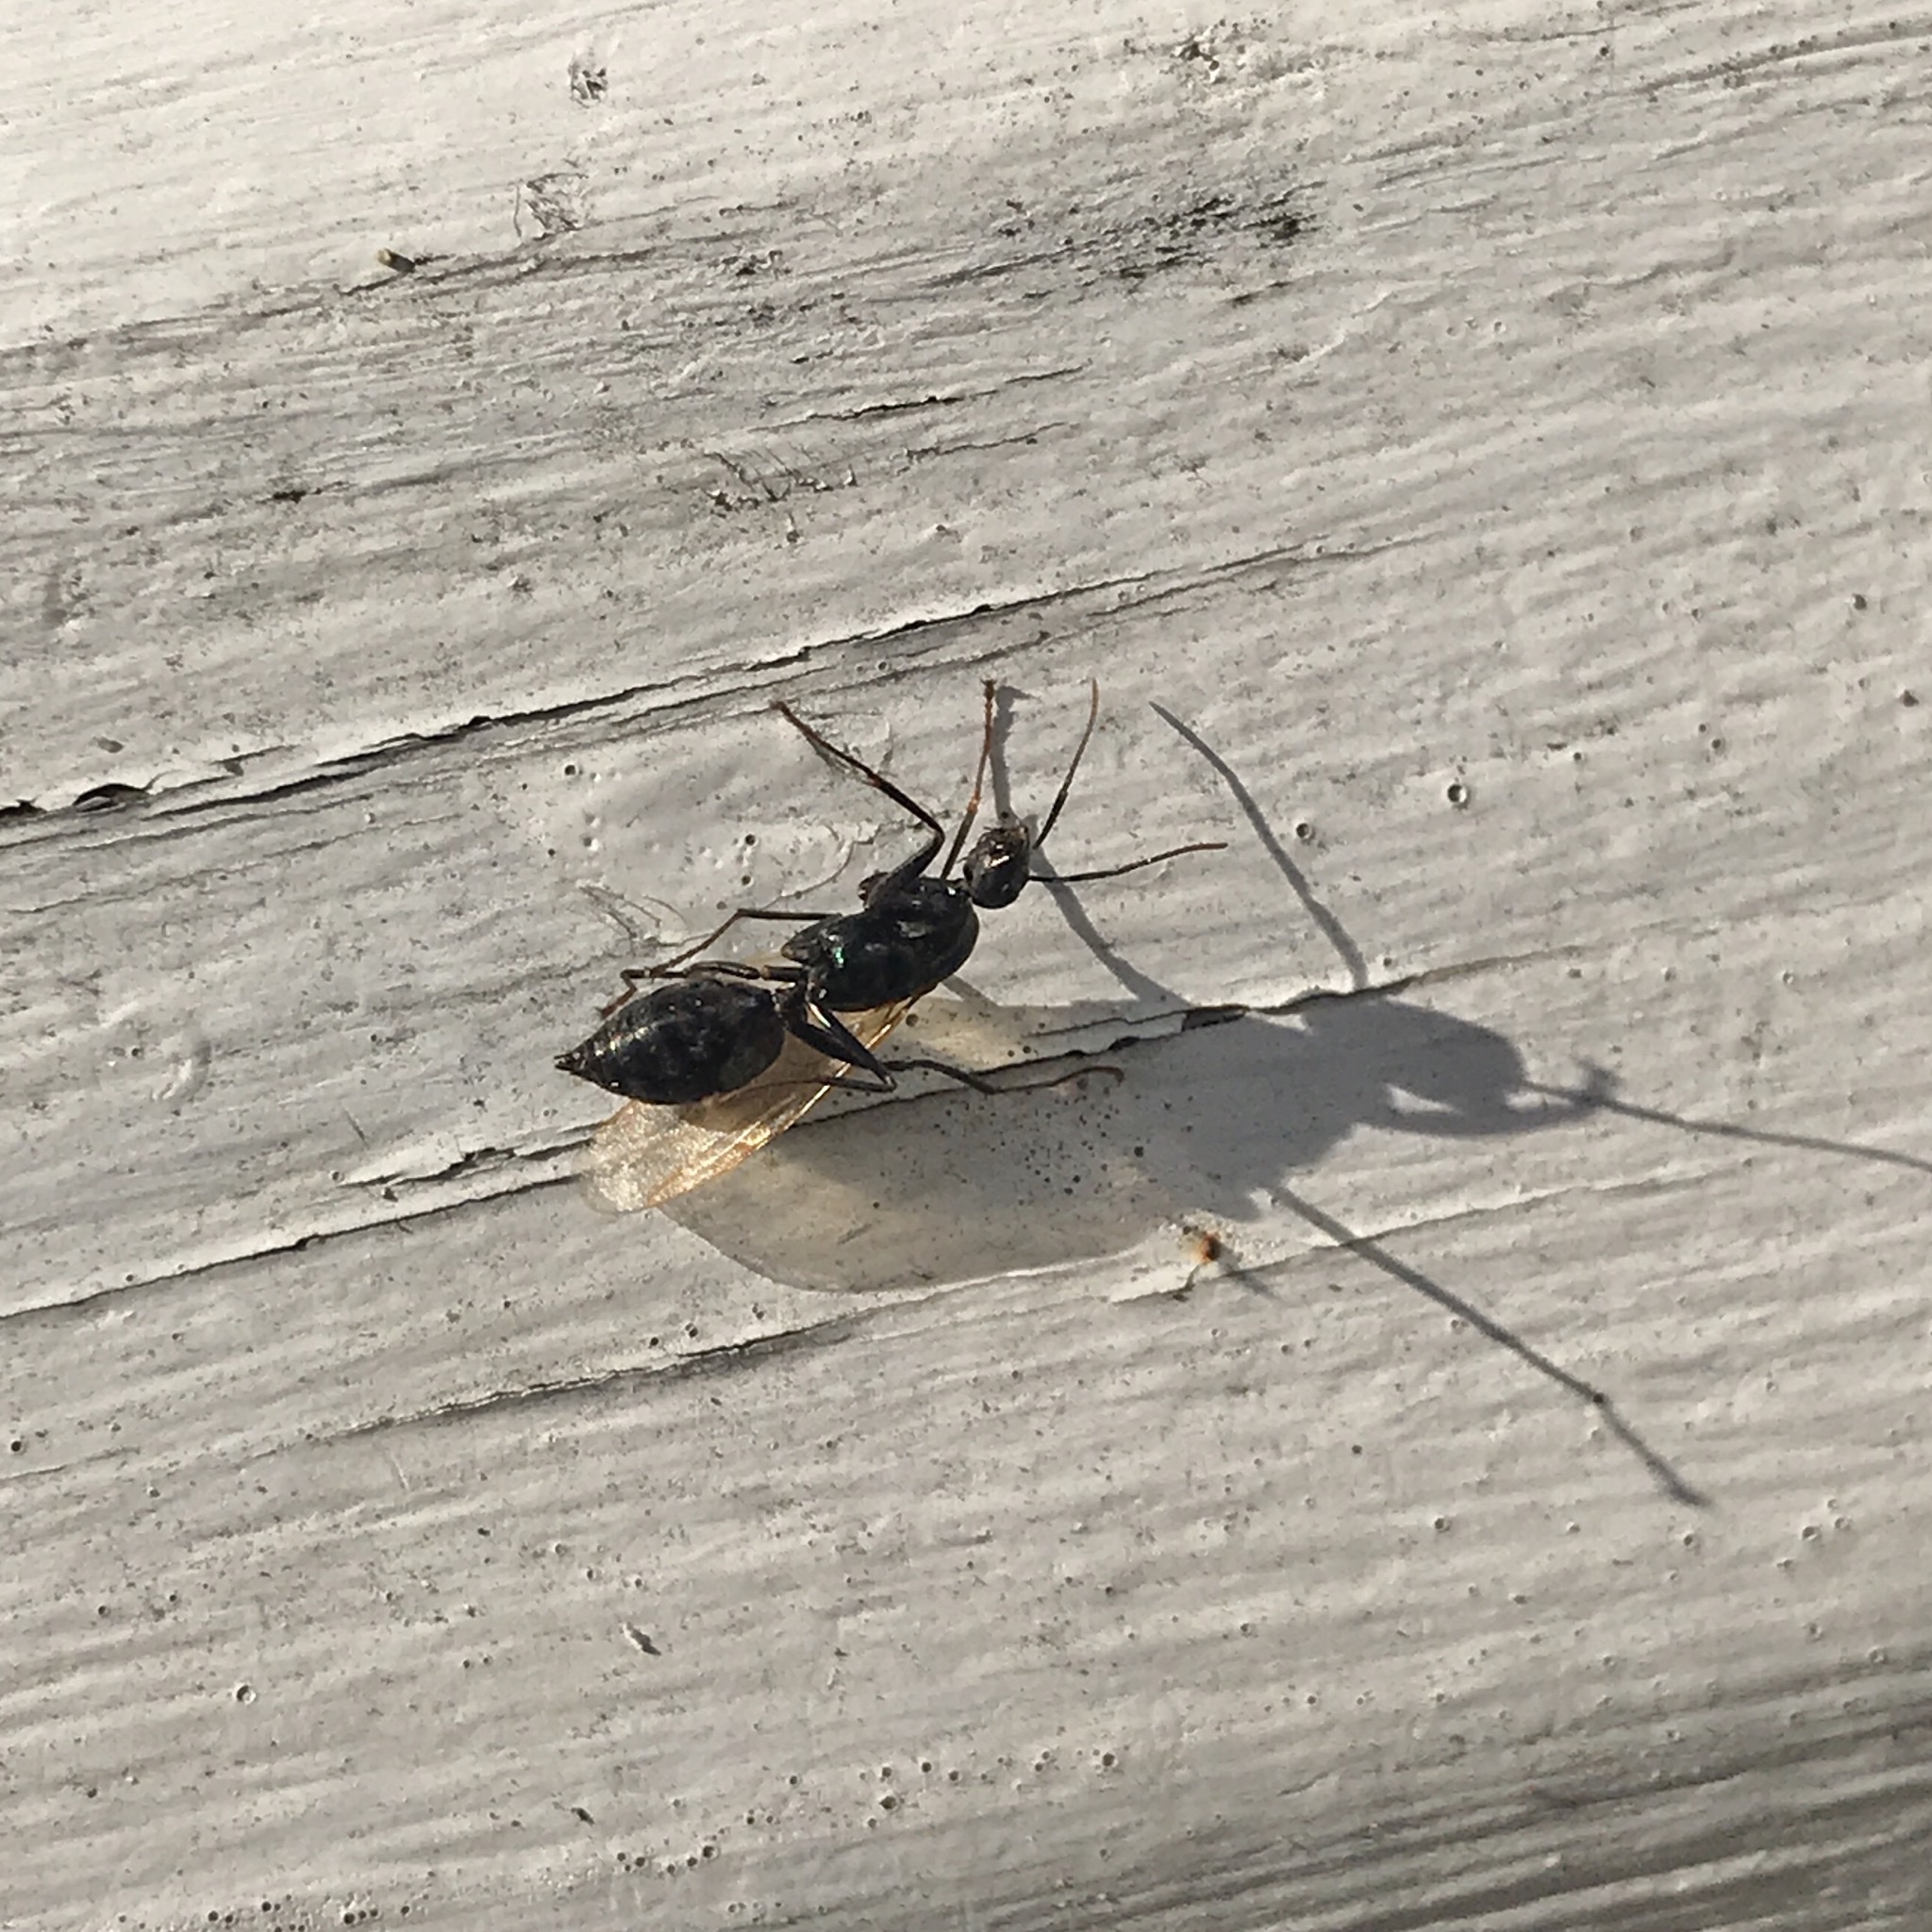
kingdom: Animalia
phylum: Arthropoda
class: Insecta
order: Hymenoptera
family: Formicidae
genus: Camponotus
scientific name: Camponotus pennsylvanicus
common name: Black carpenter ant
